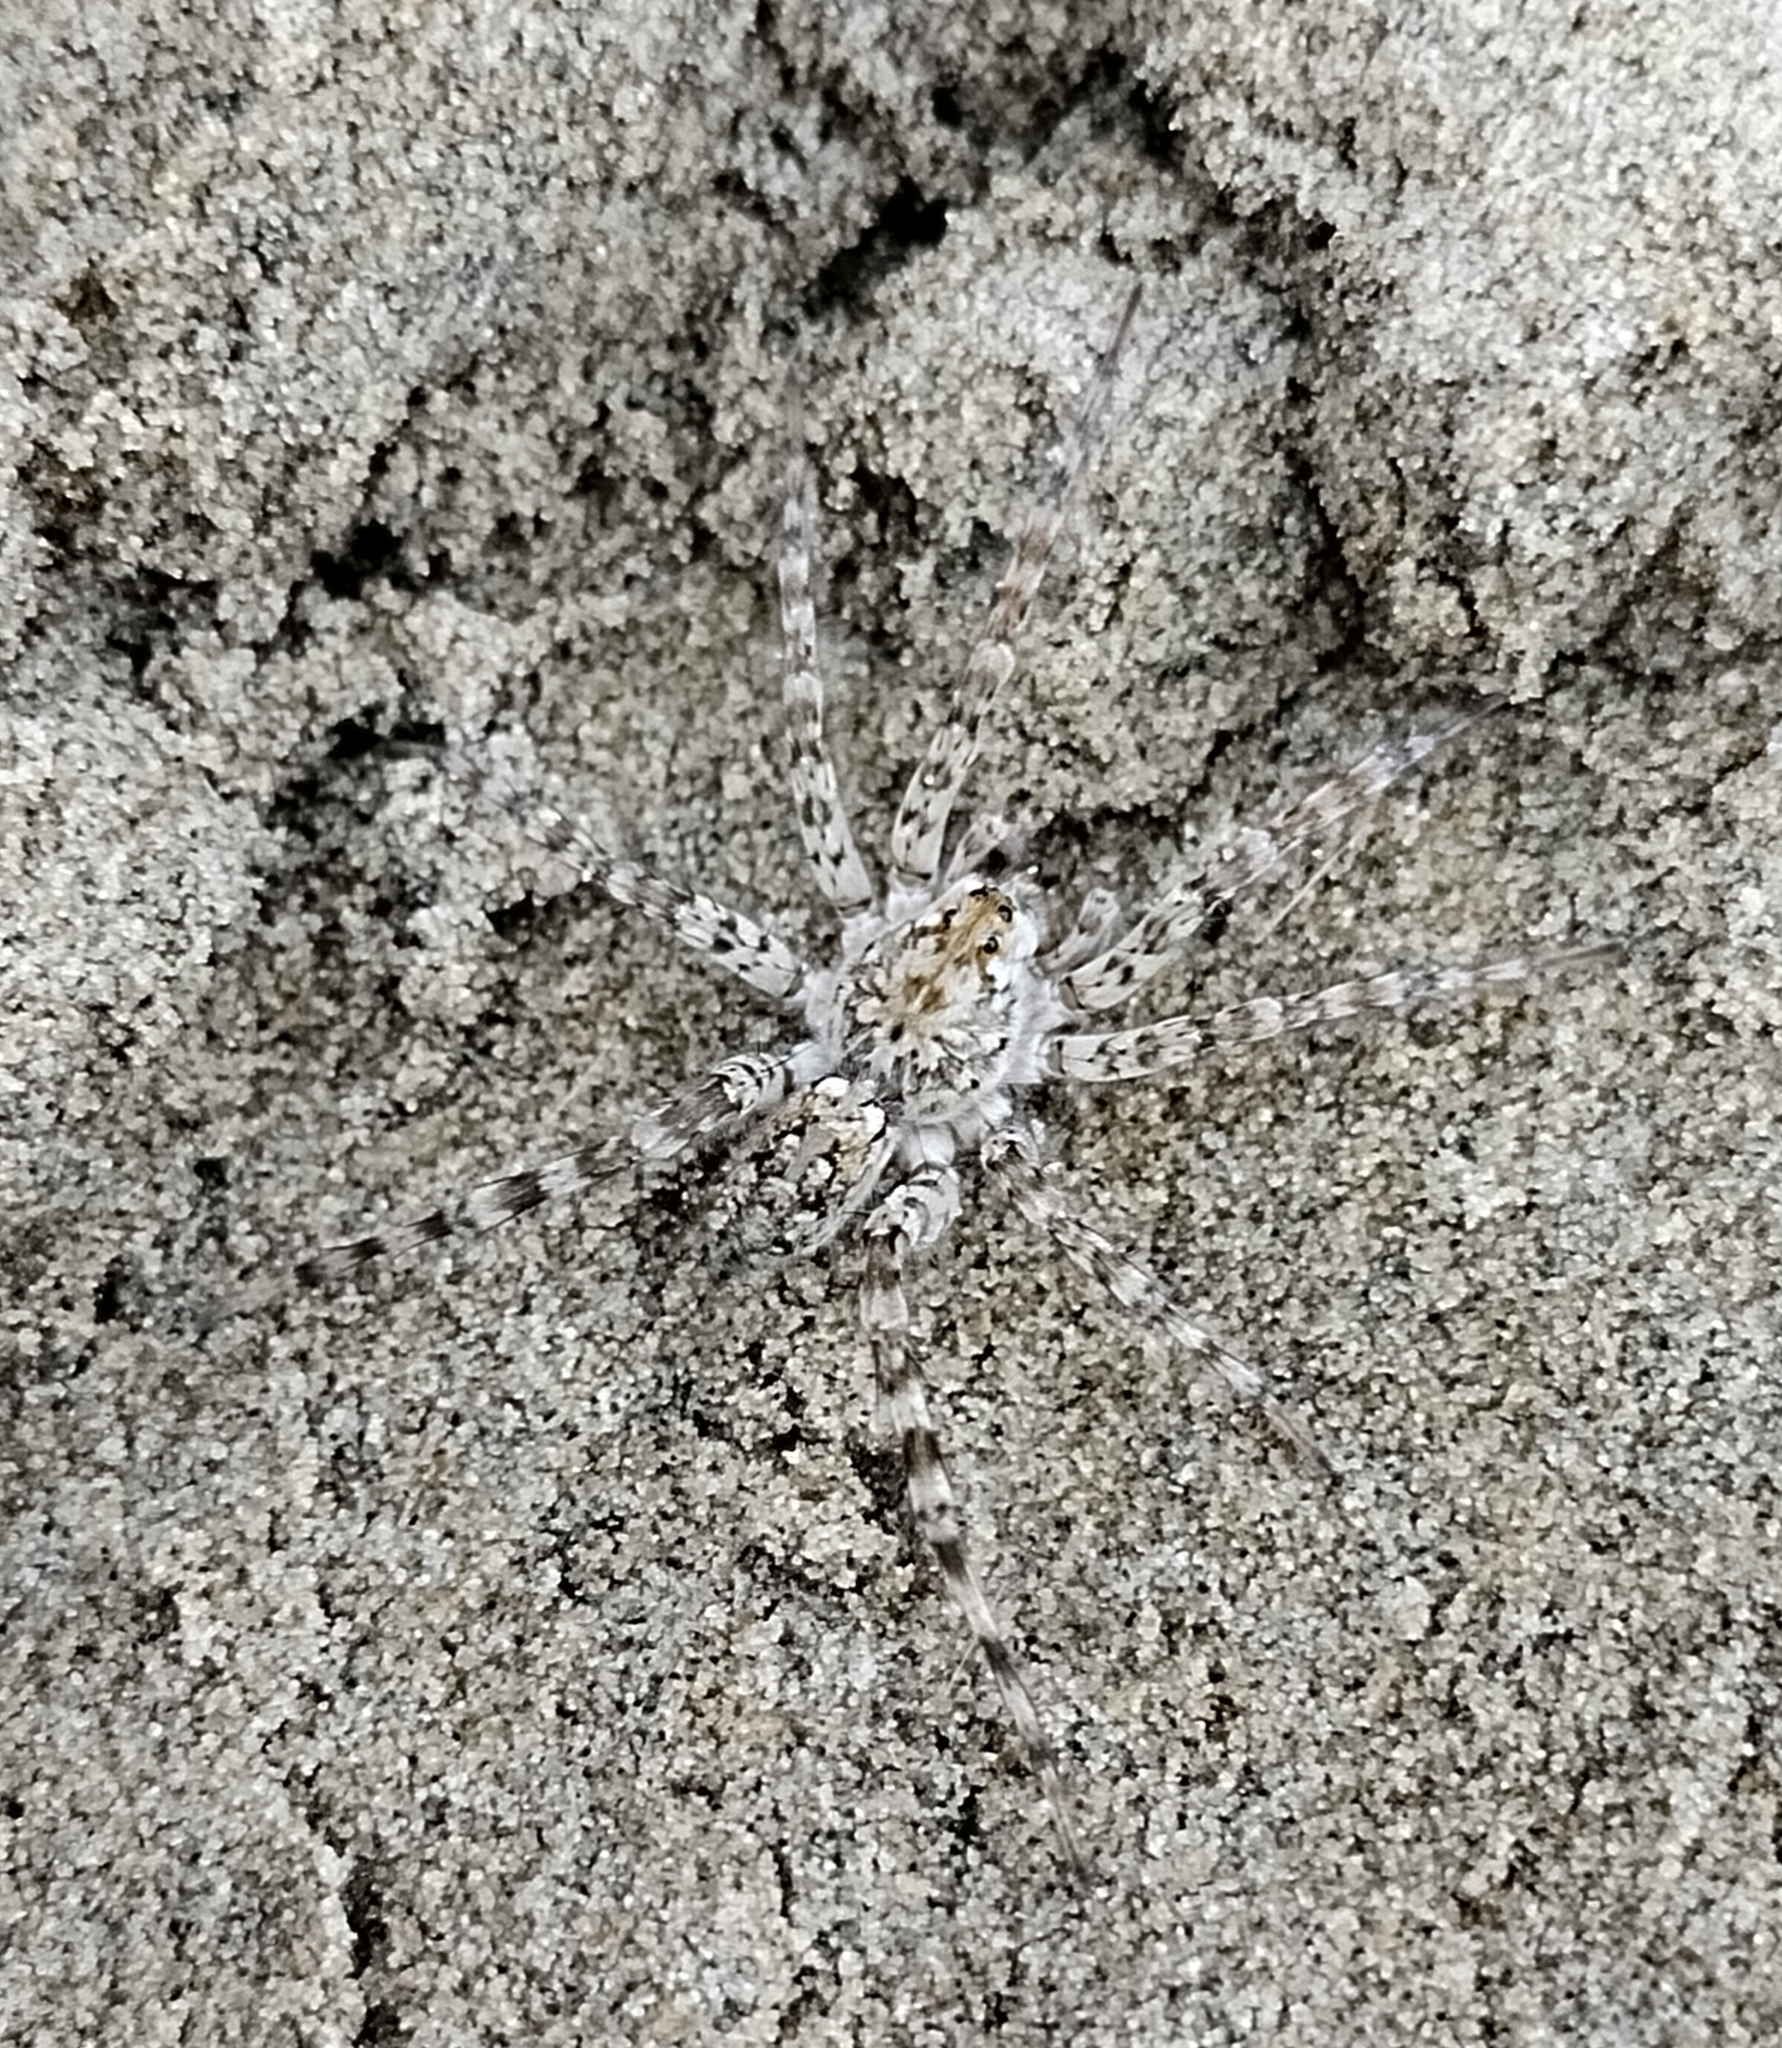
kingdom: Animalia
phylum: Arthropoda
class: Arachnida
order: Araneae
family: Lycosidae
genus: Arctosa
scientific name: Arctosa littoralis
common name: Wolf spiders
